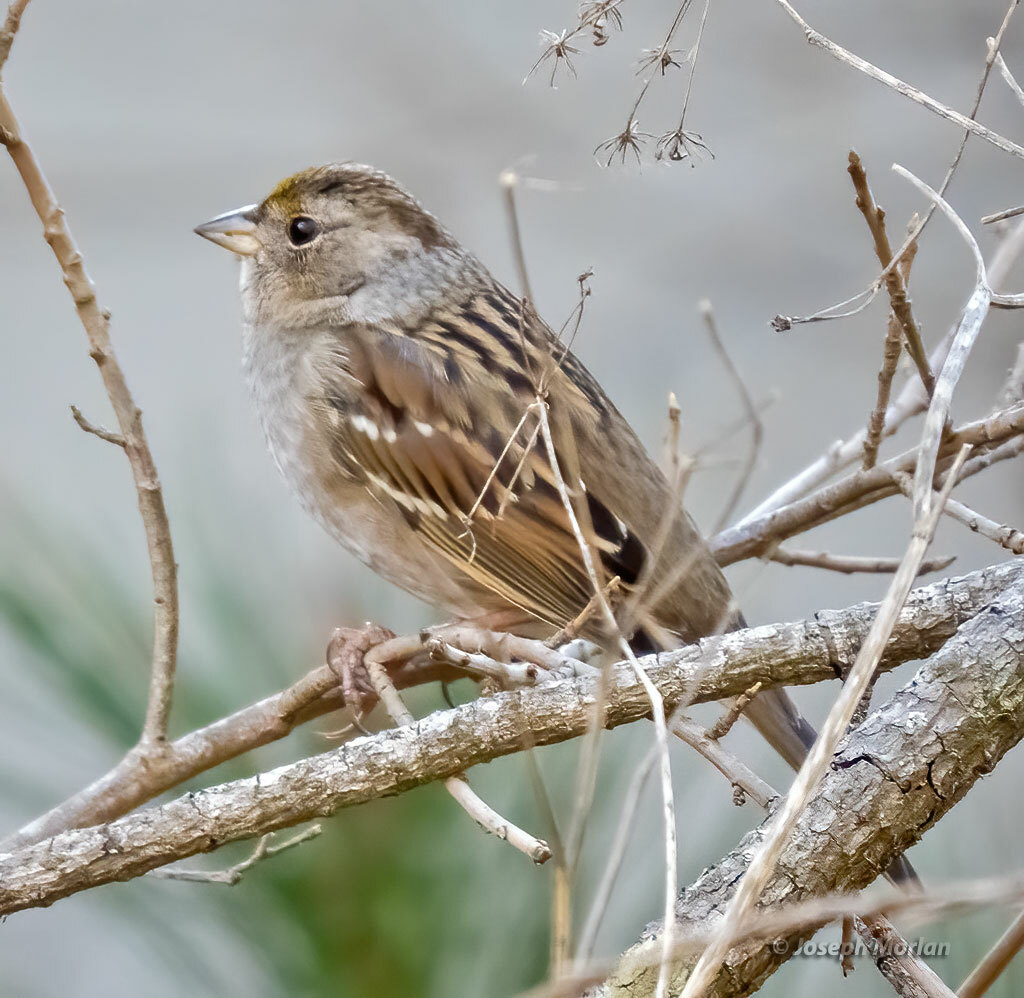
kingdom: Animalia
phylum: Chordata
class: Aves
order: Passeriformes
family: Passerellidae
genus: Zonotrichia
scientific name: Zonotrichia atricapilla
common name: Golden-crowned sparrow
